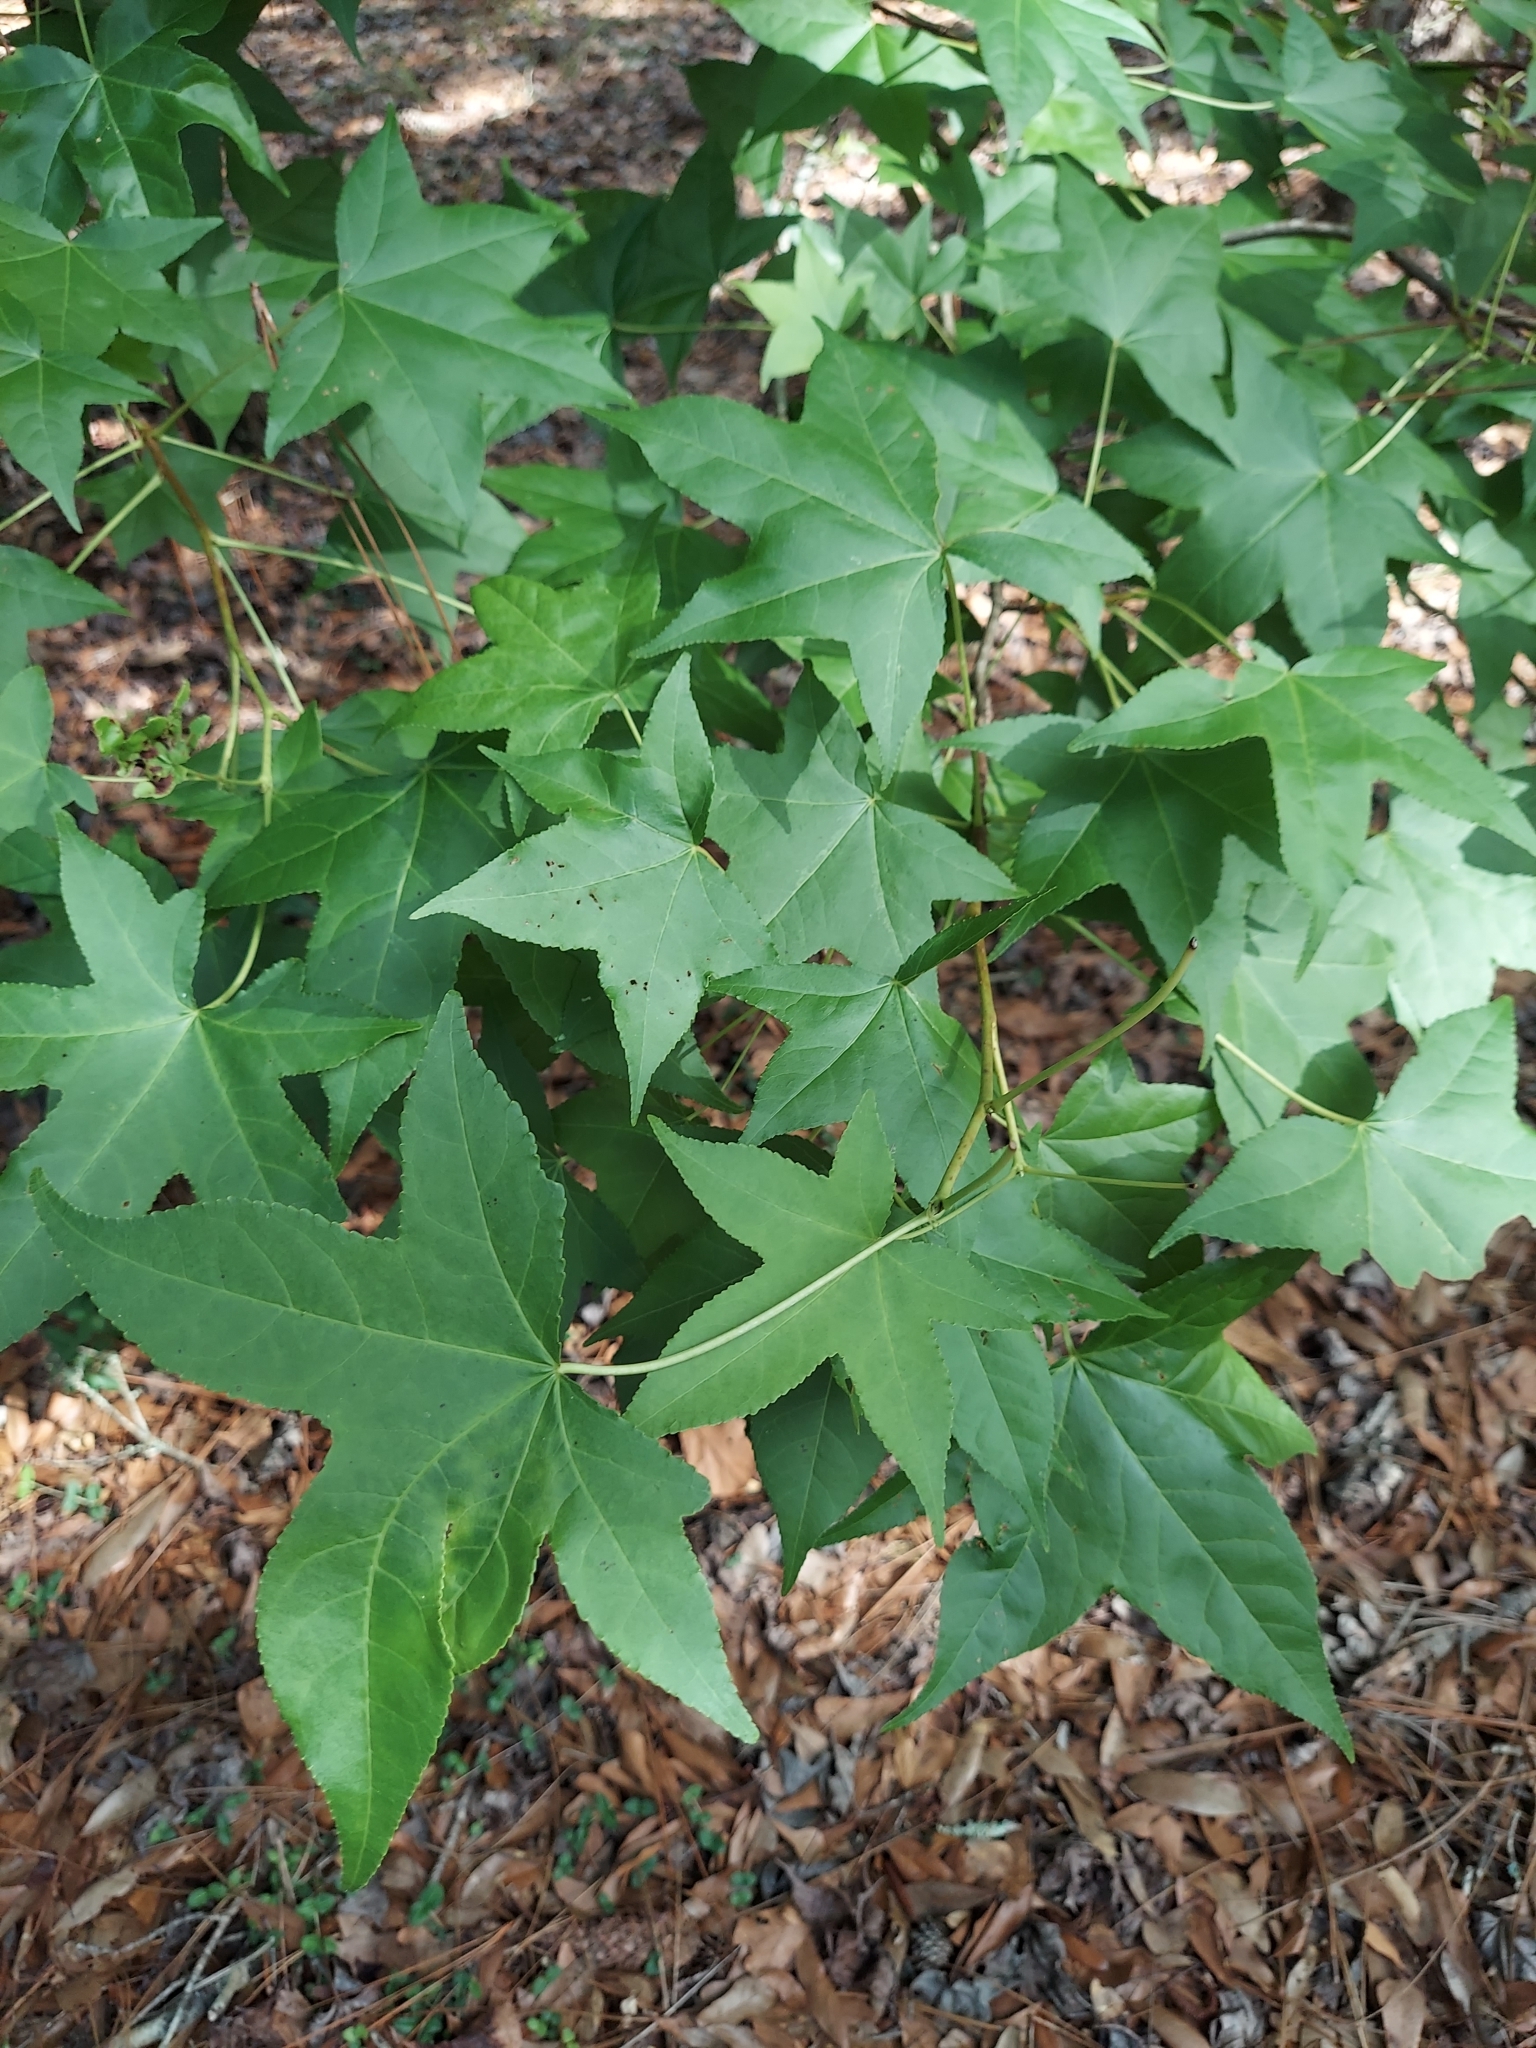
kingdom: Plantae
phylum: Tracheophyta
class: Magnoliopsida
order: Saxifragales
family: Altingiaceae
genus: Liquidambar
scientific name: Liquidambar styraciflua
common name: Sweet gum
